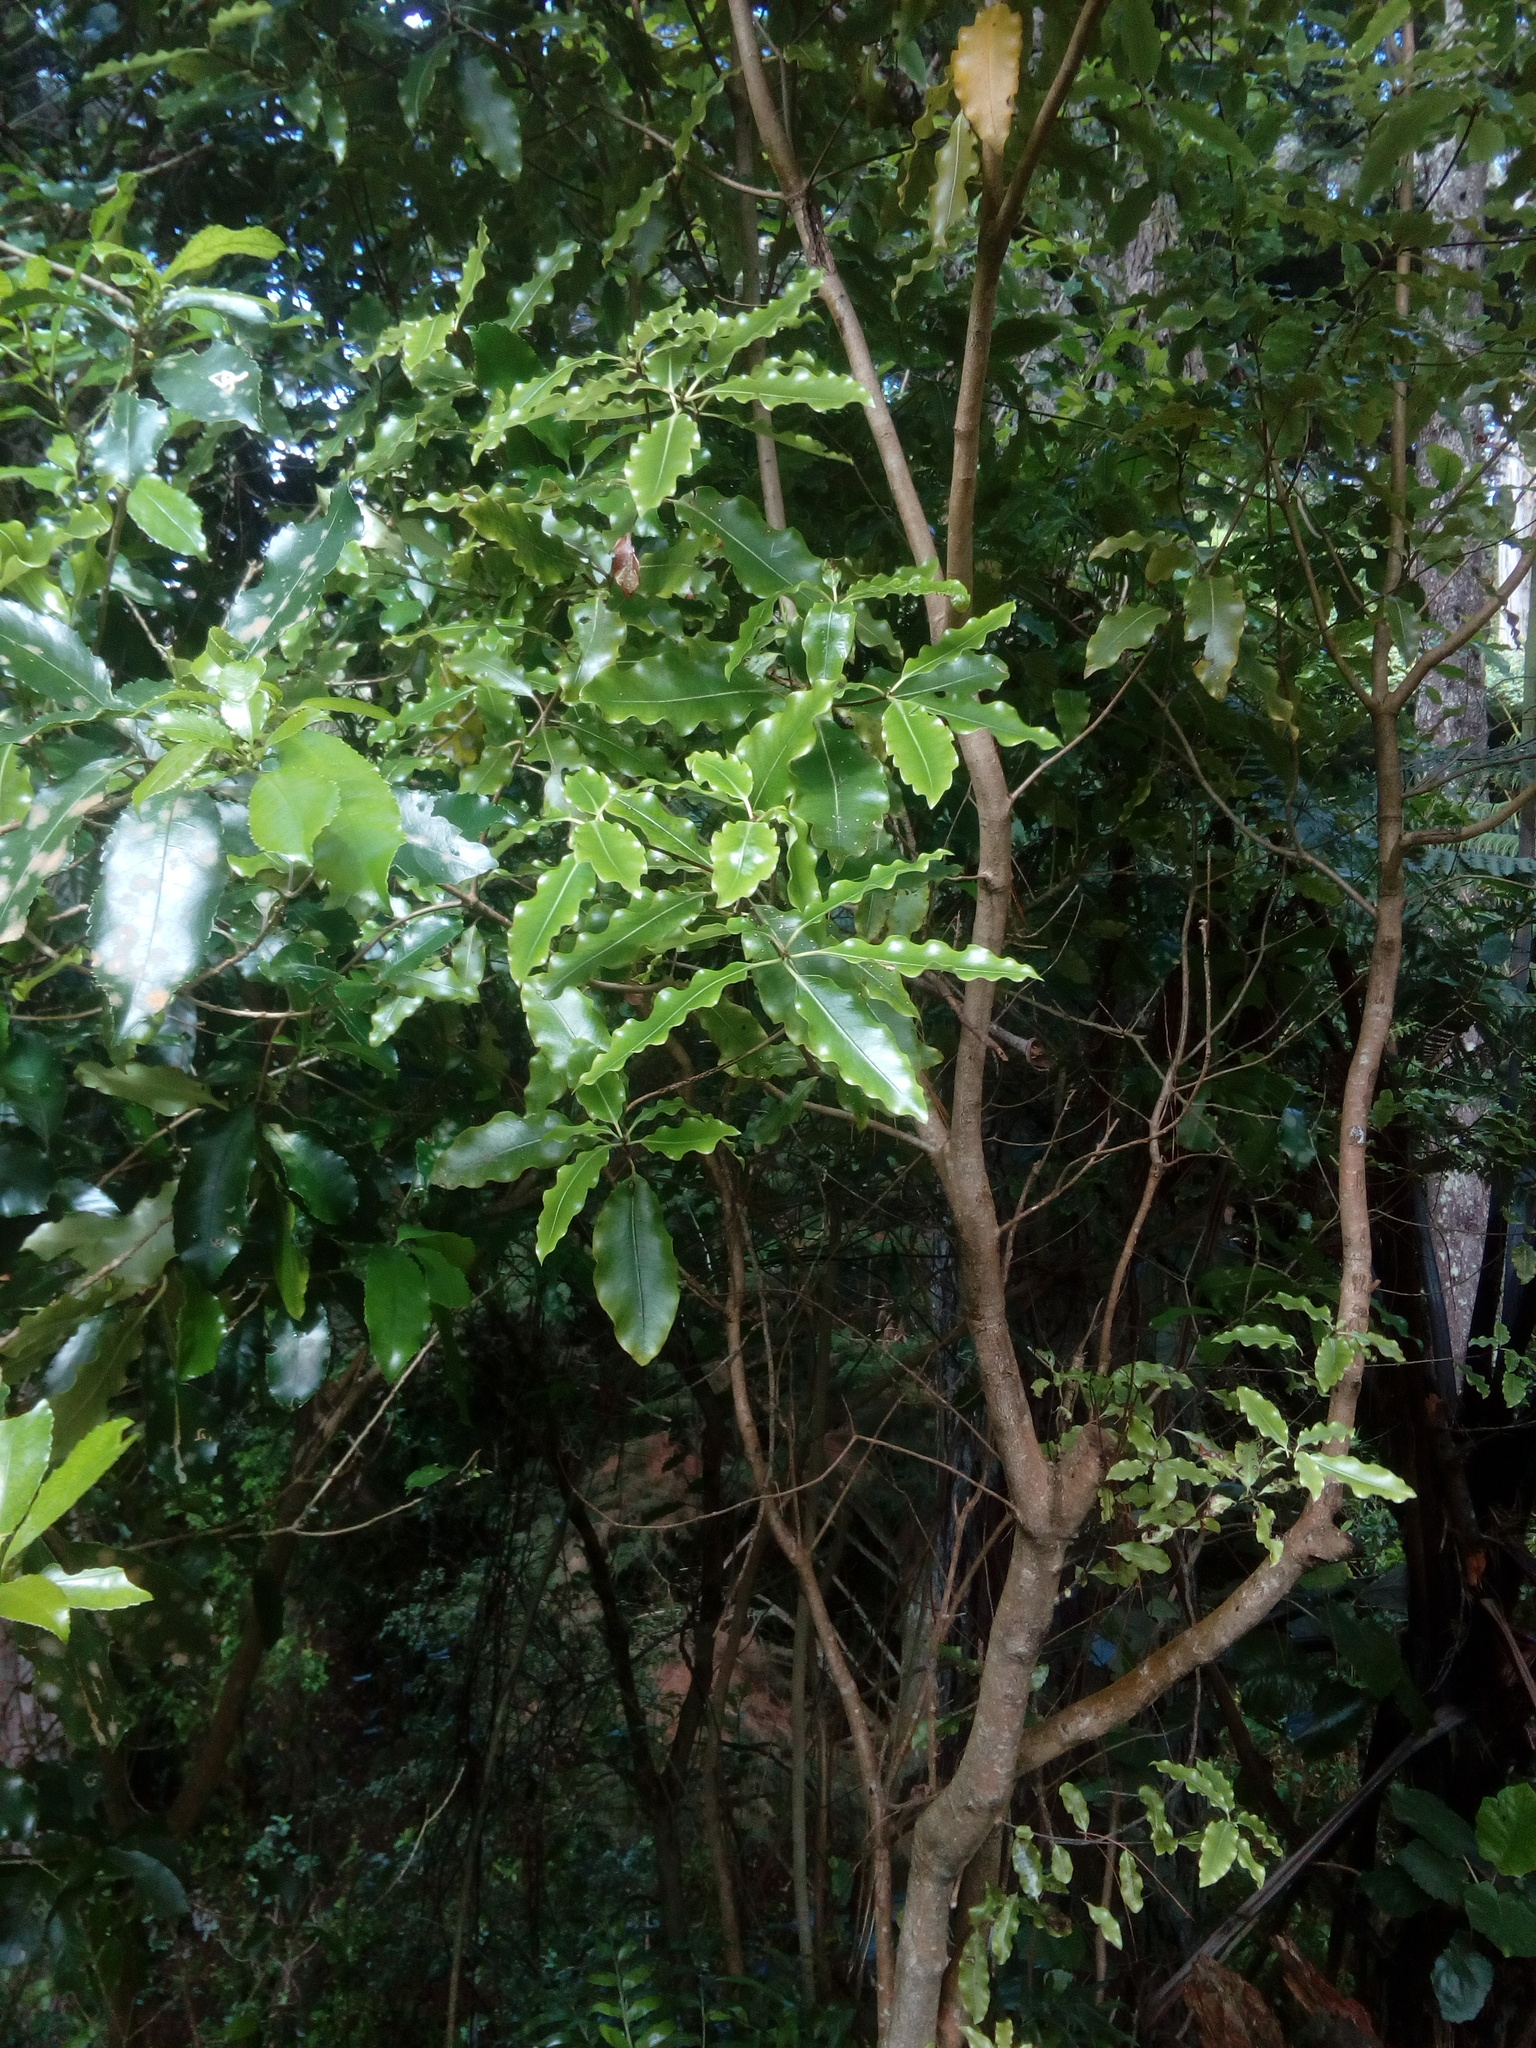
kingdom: Plantae
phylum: Tracheophyta
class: Magnoliopsida
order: Apiales
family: Pittosporaceae
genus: Pittosporum
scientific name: Pittosporum eugenioides
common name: Lemonwood
